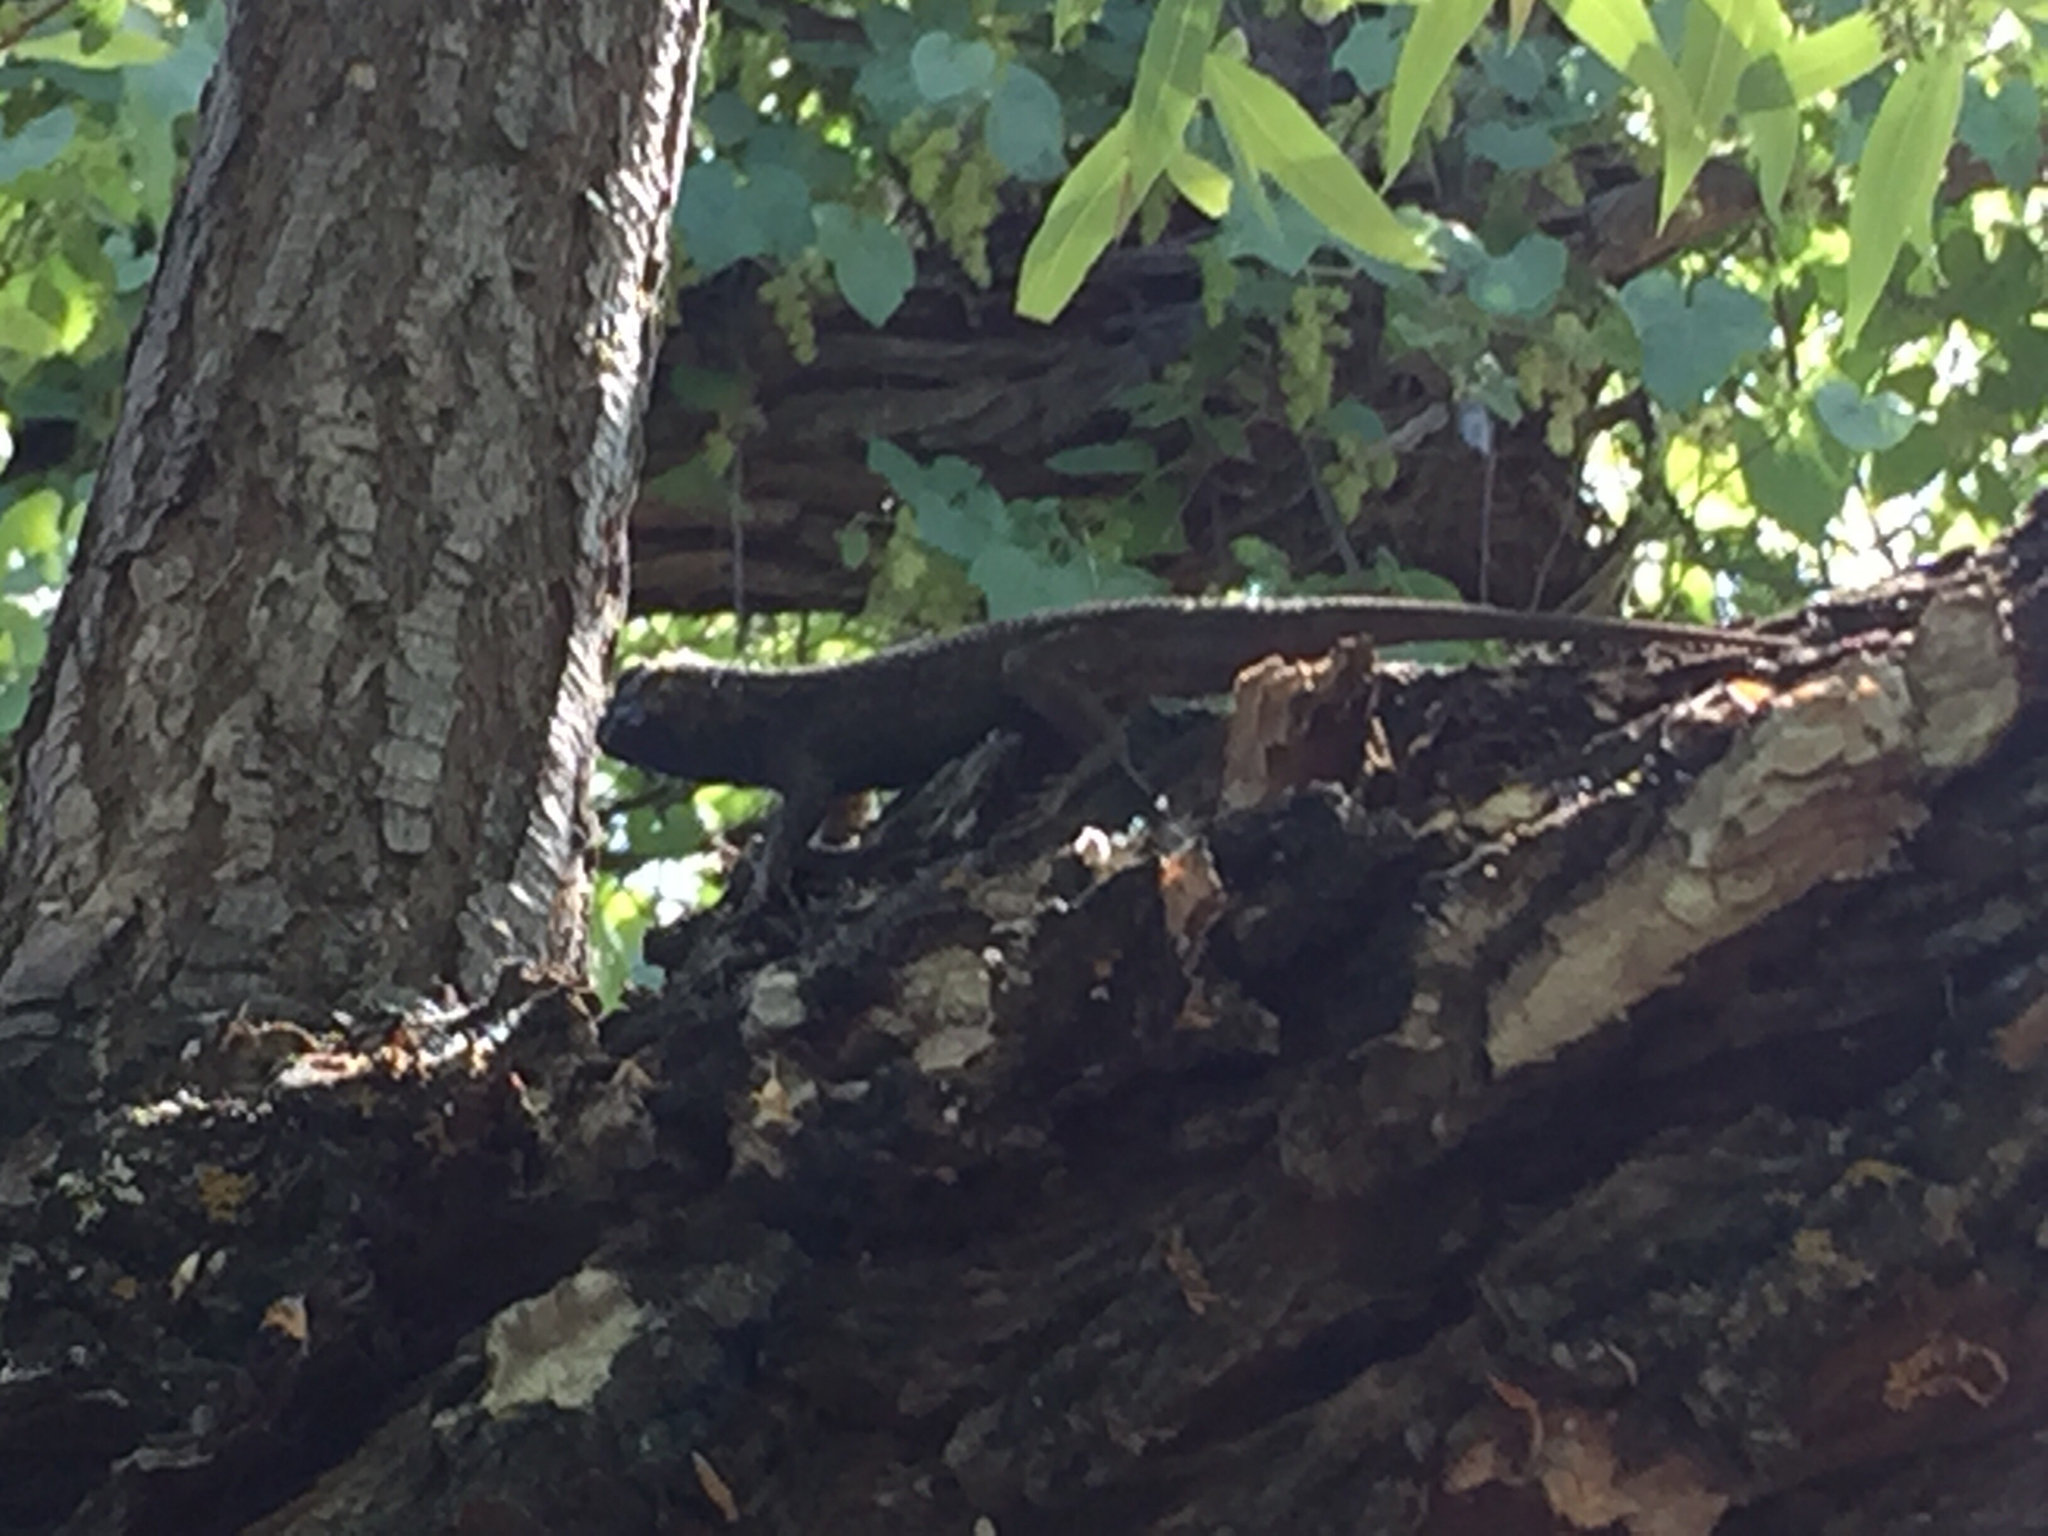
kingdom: Animalia
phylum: Chordata
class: Squamata
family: Phrynosomatidae
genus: Sceloporus
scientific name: Sceloporus occidentalis
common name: Western fence lizard
